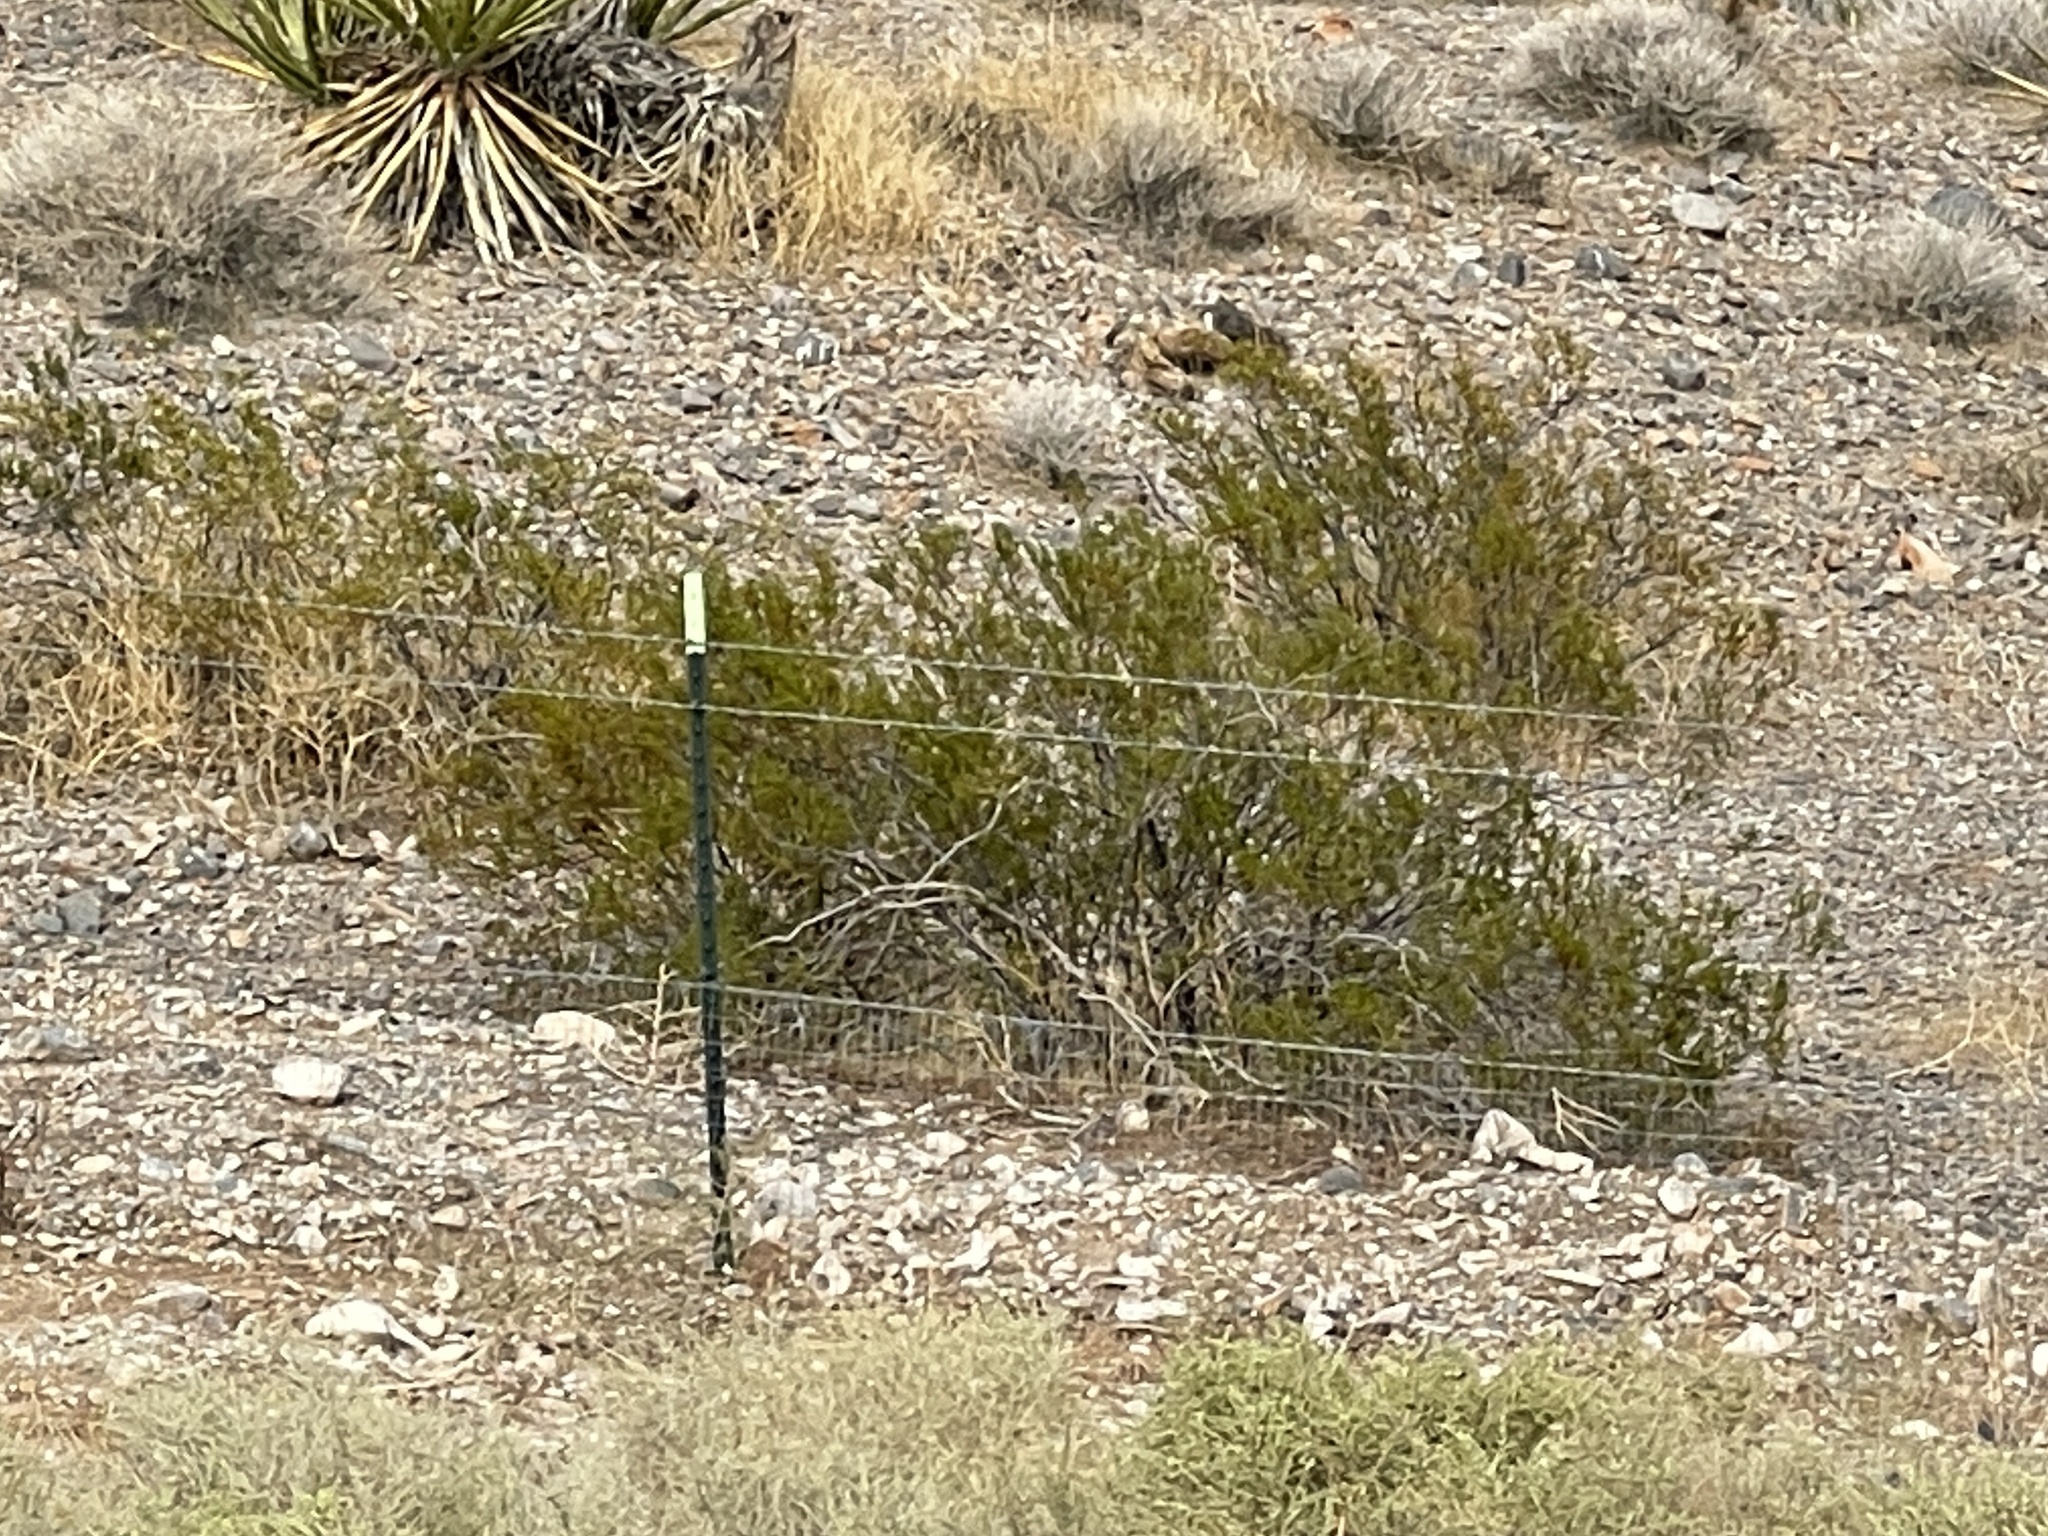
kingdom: Plantae
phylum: Tracheophyta
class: Magnoliopsida
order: Zygophyllales
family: Zygophyllaceae
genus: Larrea
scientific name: Larrea tridentata
